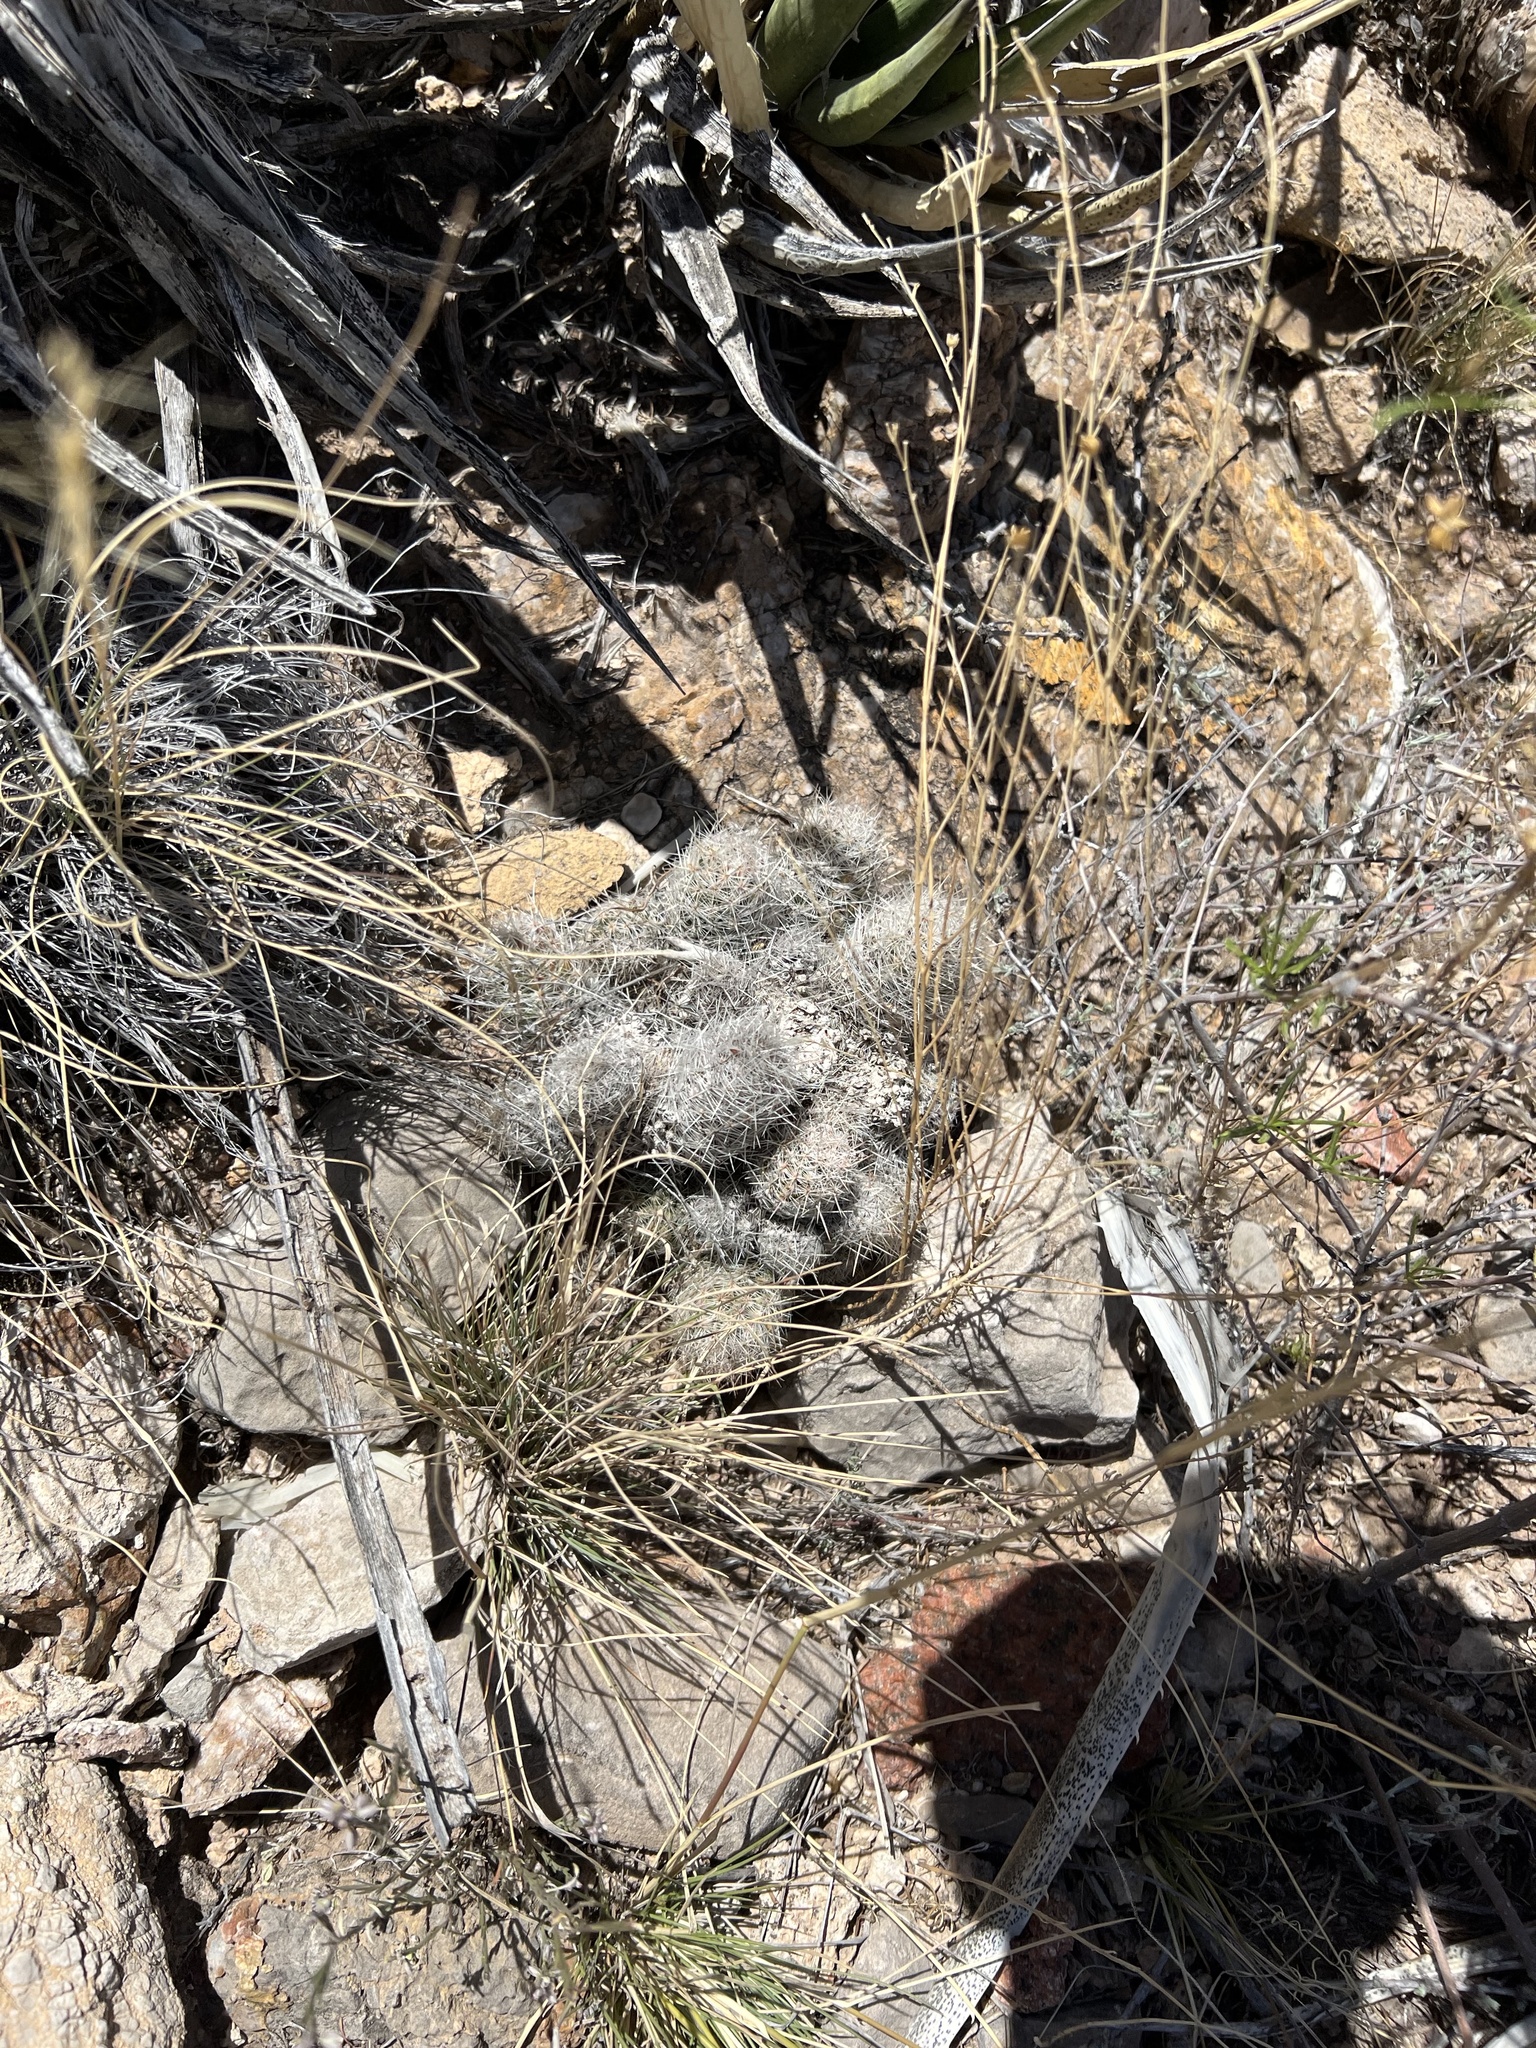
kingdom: Plantae
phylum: Tracheophyta
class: Magnoliopsida
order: Caryophyllales
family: Cactaceae
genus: Pelecyphora
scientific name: Pelecyphora tuberculosa
